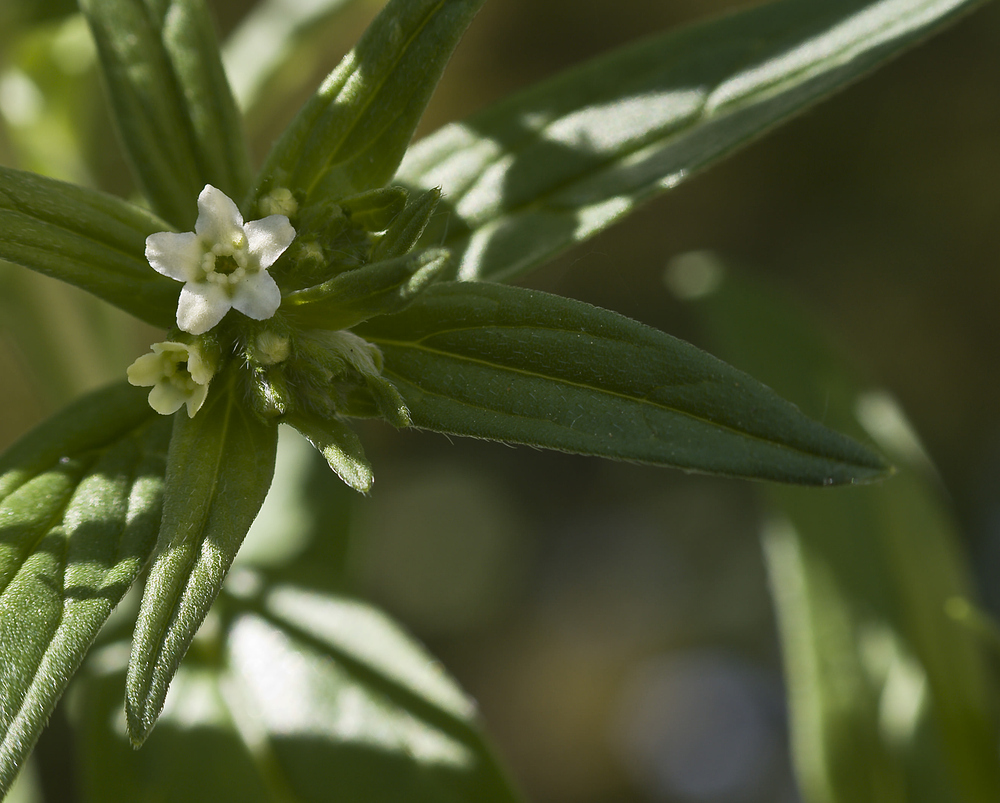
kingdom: Plantae
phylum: Tracheophyta
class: Magnoliopsida
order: Boraginales
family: Boraginaceae
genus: Lithospermum
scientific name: Lithospermum officinale
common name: Common gromwell
